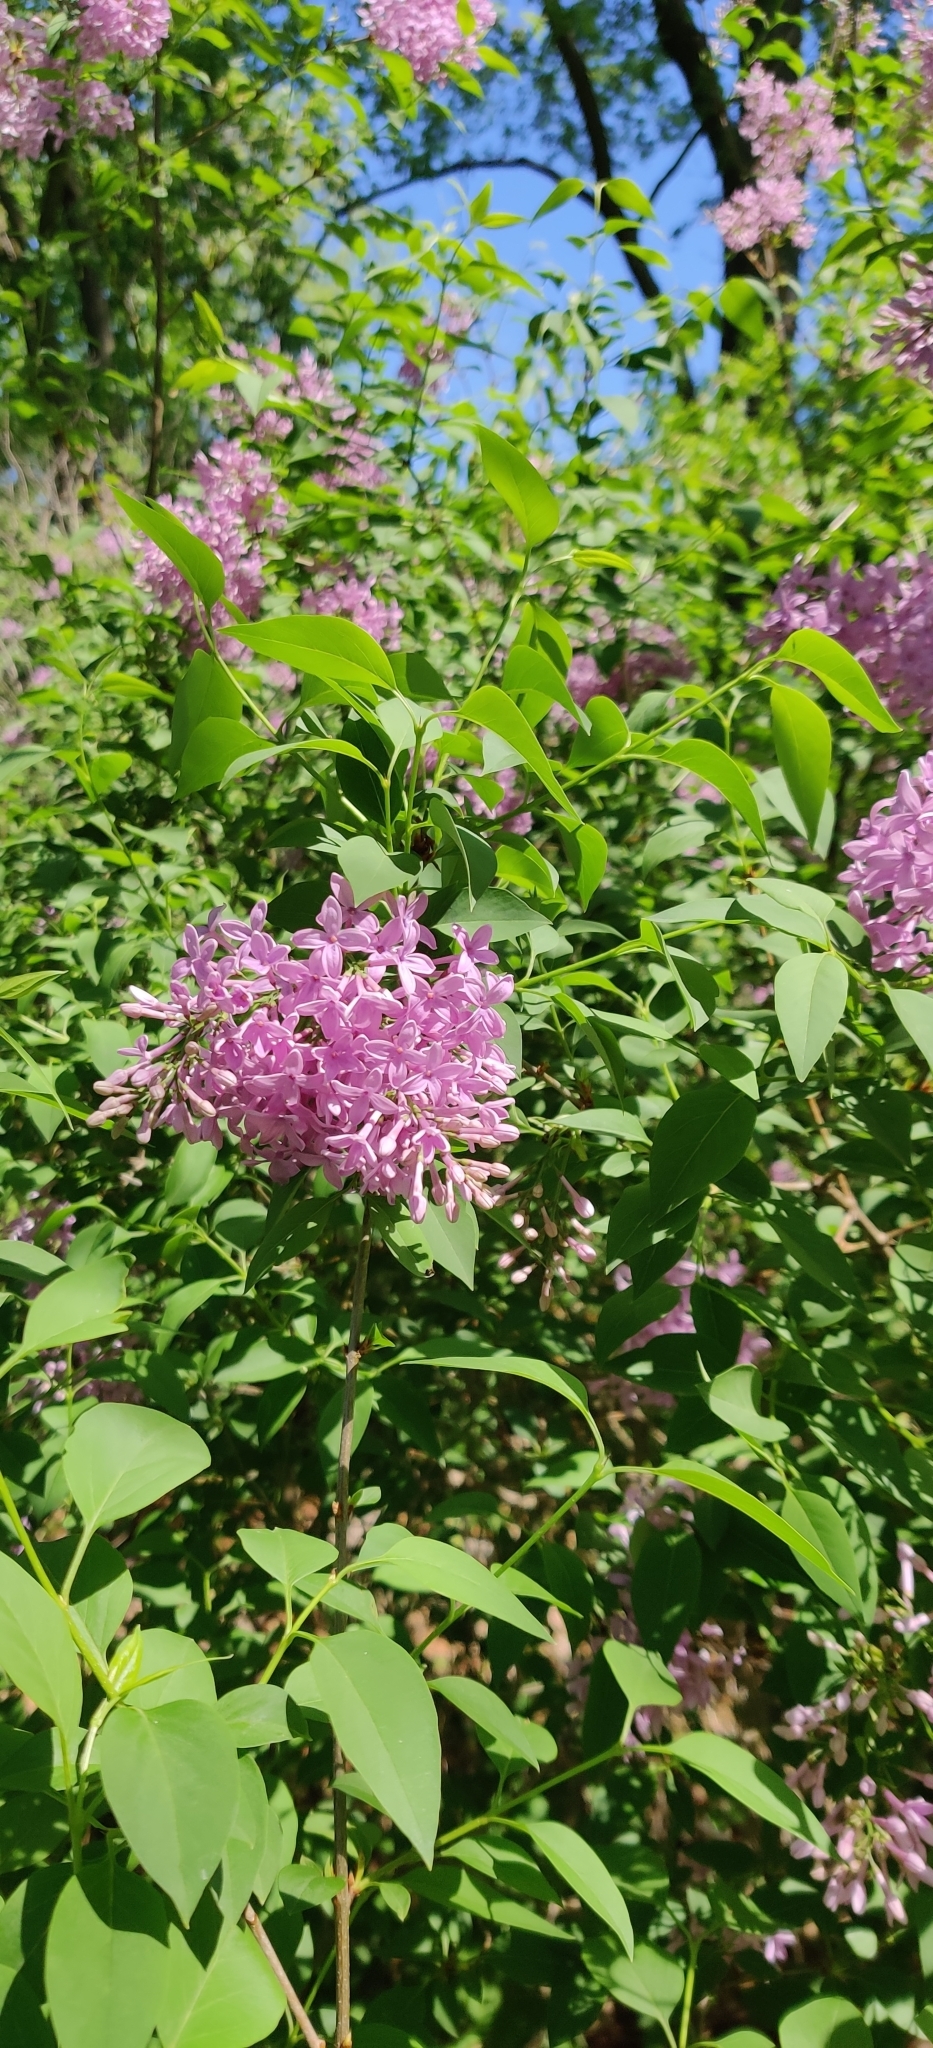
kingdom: Plantae
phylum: Tracheophyta
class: Magnoliopsida
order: Lamiales
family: Oleaceae
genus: Syringa
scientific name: Syringa vulgaris
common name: Common lilac
